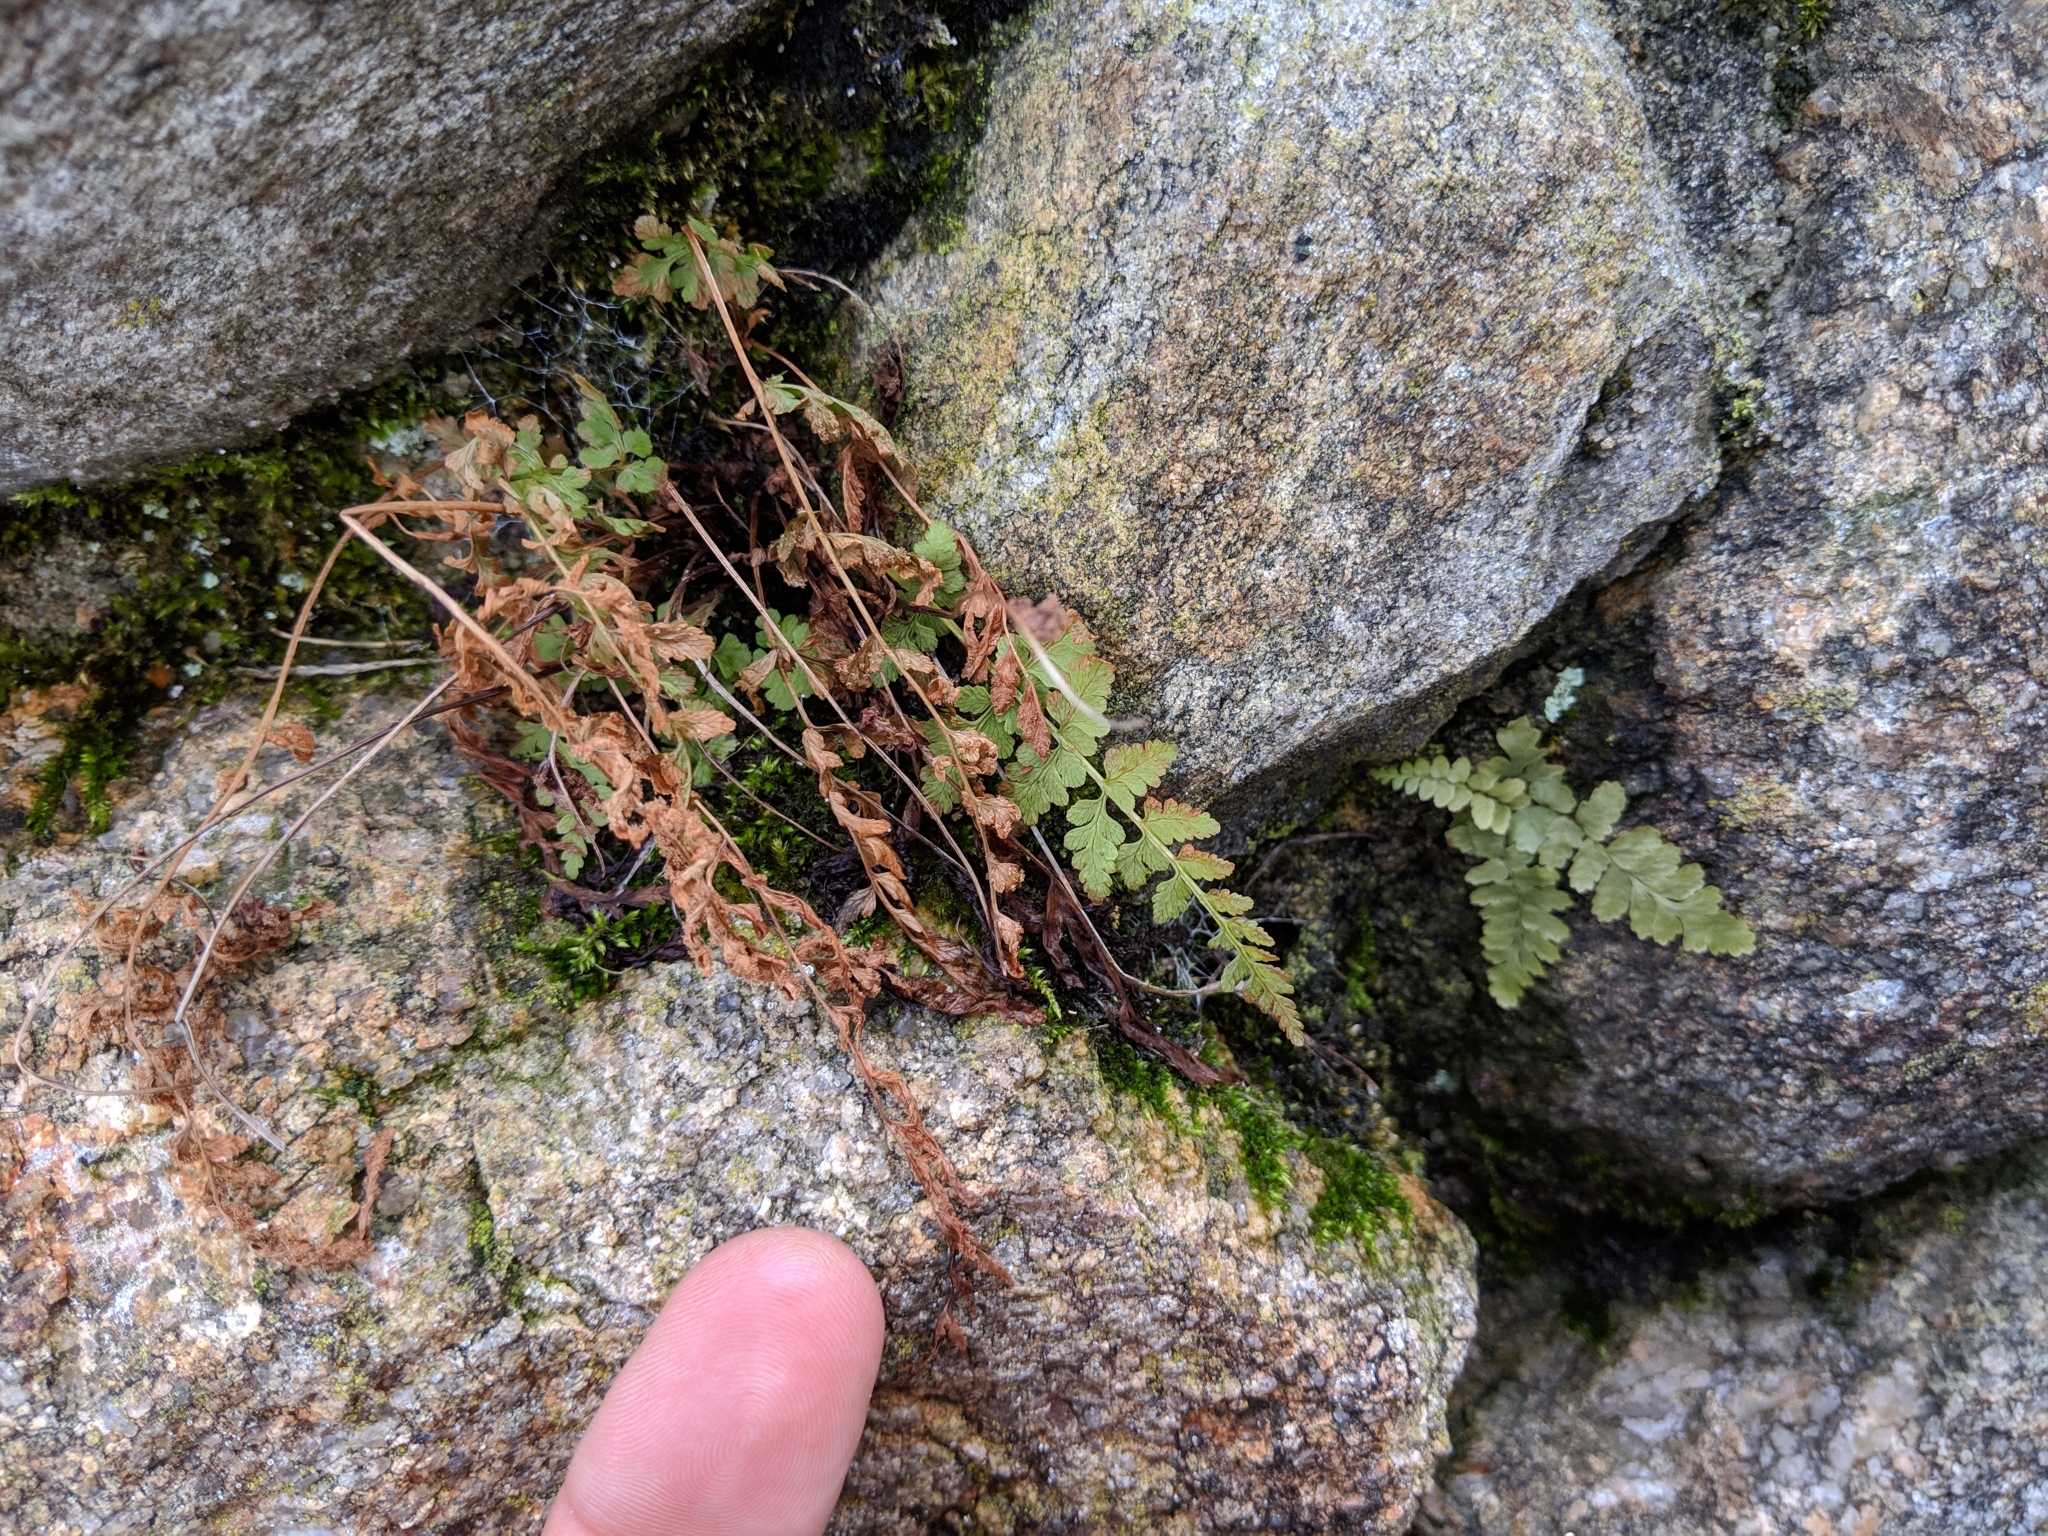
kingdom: Plantae
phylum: Tracheophyta
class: Polypodiopsida
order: Polypodiales
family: Aspleniaceae
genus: Asplenium
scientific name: Asplenium platyneuron
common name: Ebony spleenwort
